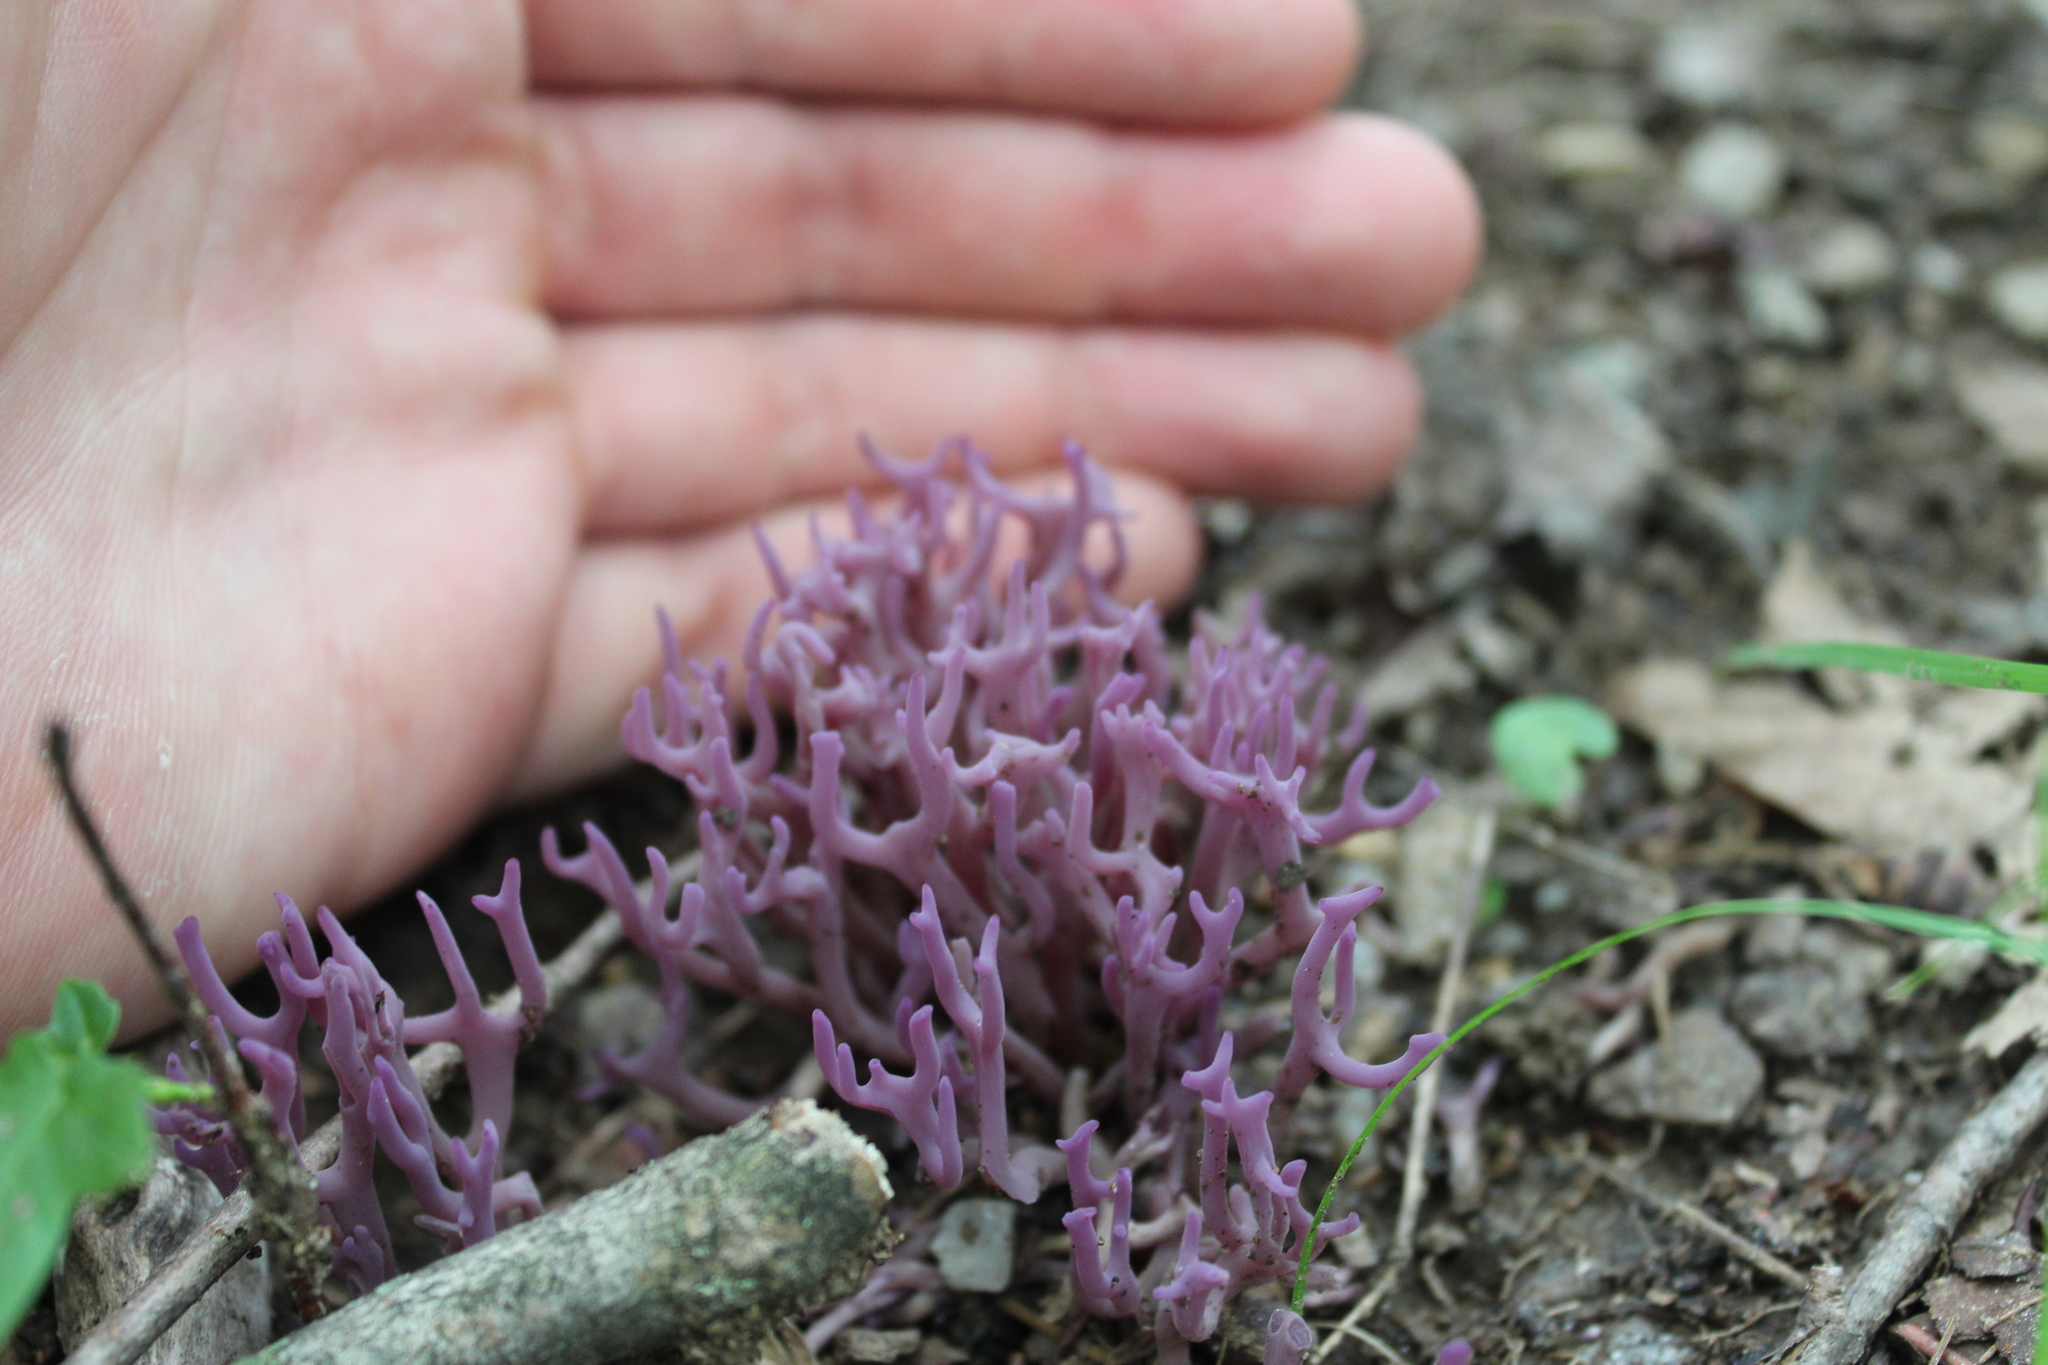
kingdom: Fungi
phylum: Basidiomycota
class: Agaricomycetes
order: Agaricales
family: Clavariaceae
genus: Clavaria
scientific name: Clavaria zollingeri
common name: Violet coral
